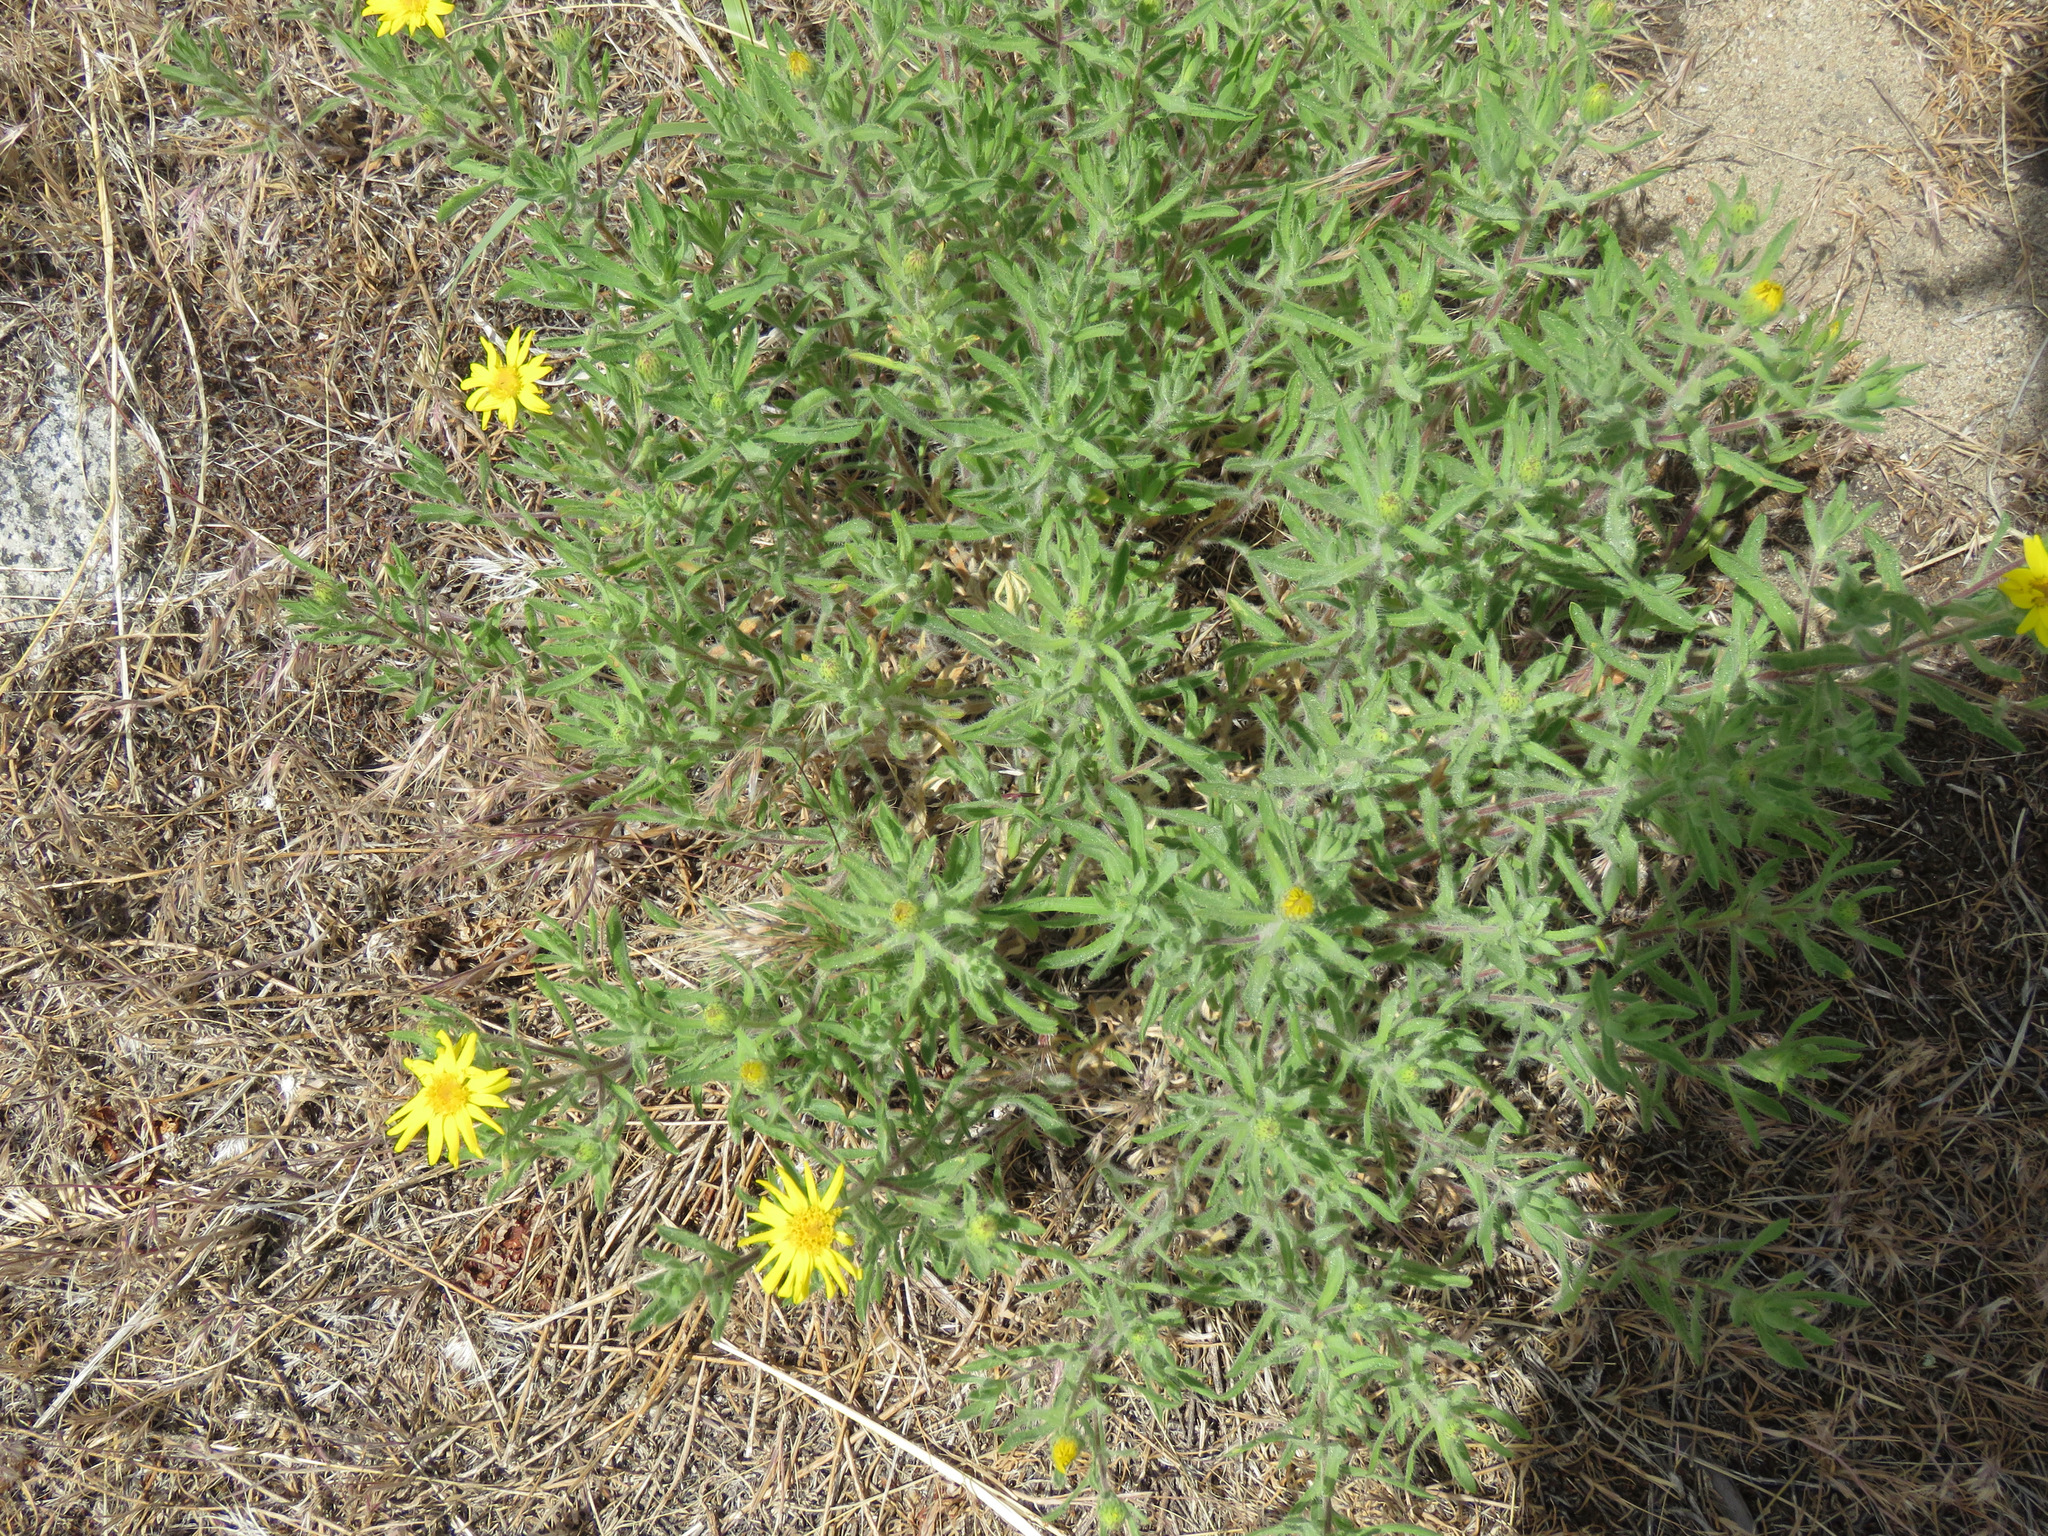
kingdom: Plantae
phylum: Tracheophyta
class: Magnoliopsida
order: Asterales
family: Asteraceae
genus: Heterotheca
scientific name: Heterotheca villosa
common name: Hairy false goldenaster
